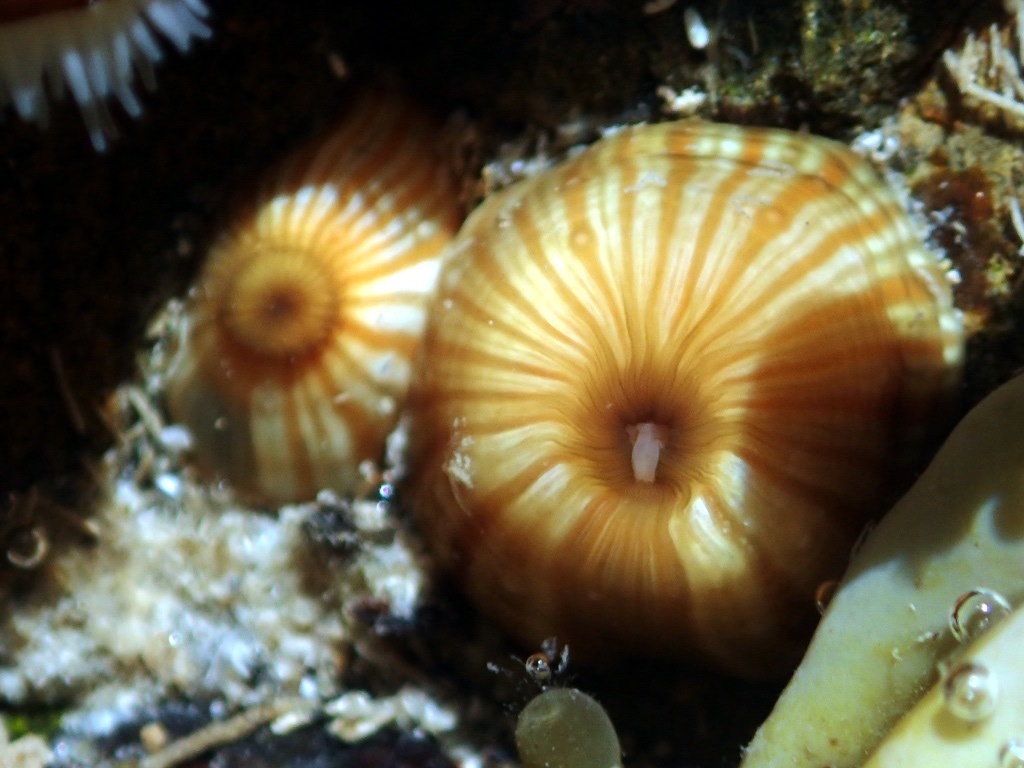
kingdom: Animalia
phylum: Cnidaria
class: Anthozoa
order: Actiniaria
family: Sagartiidae
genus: Anthothoe
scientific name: Anthothoe albocincta
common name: Orange striped anemone
